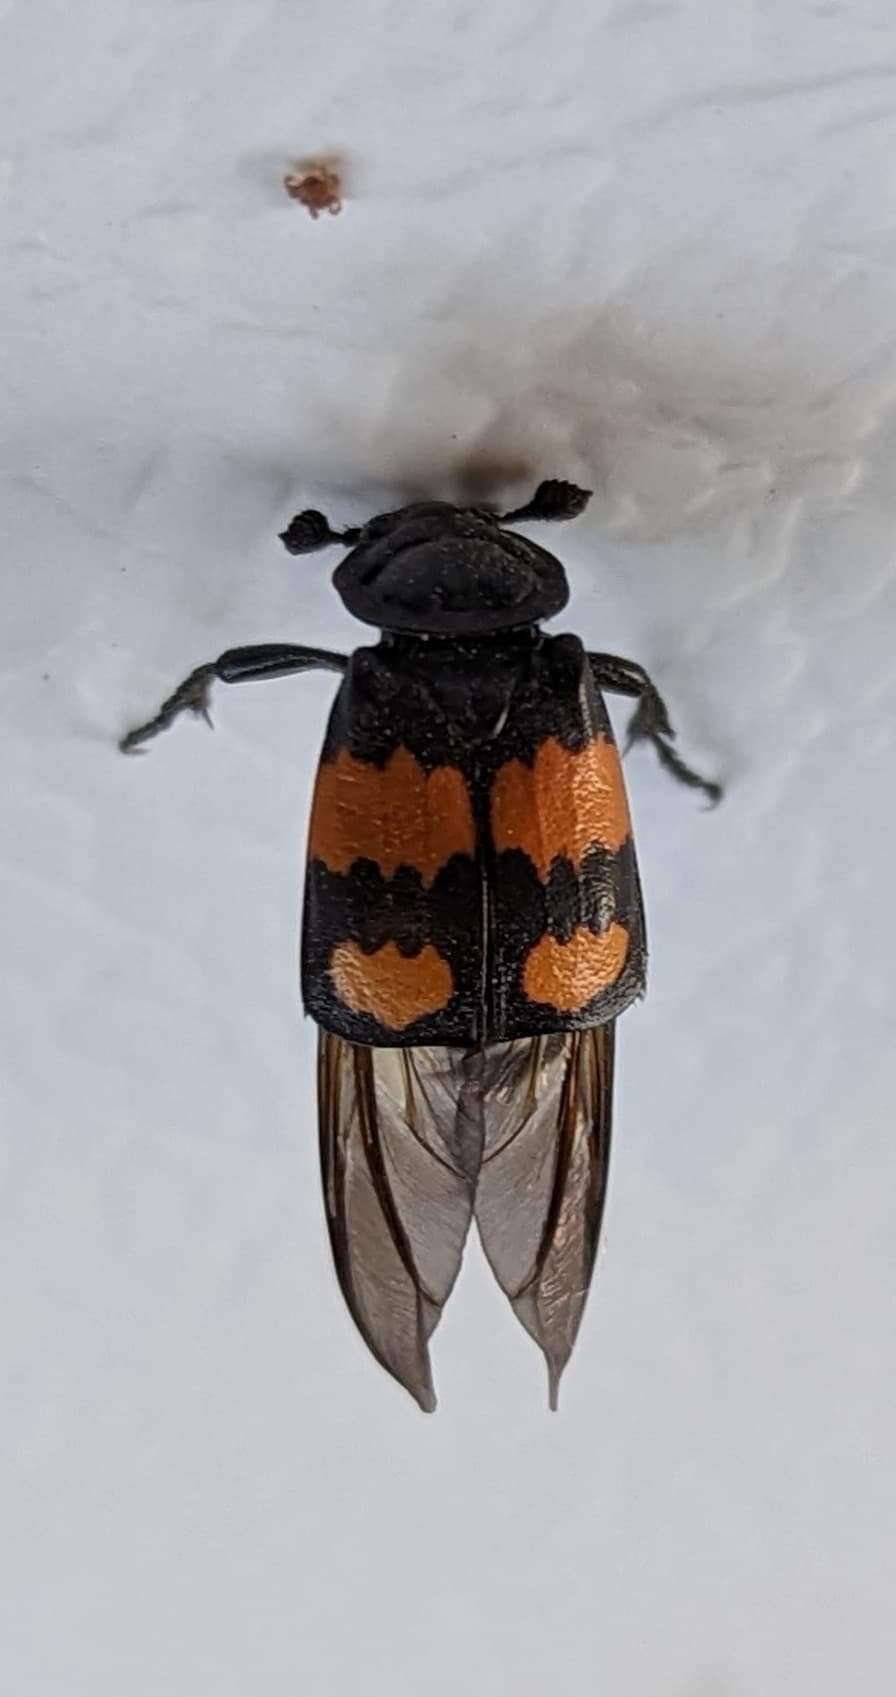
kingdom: Animalia
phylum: Arthropoda
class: Insecta
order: Coleoptera
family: Staphylinidae
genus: Nicrophorus
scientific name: Nicrophorus defodiens
